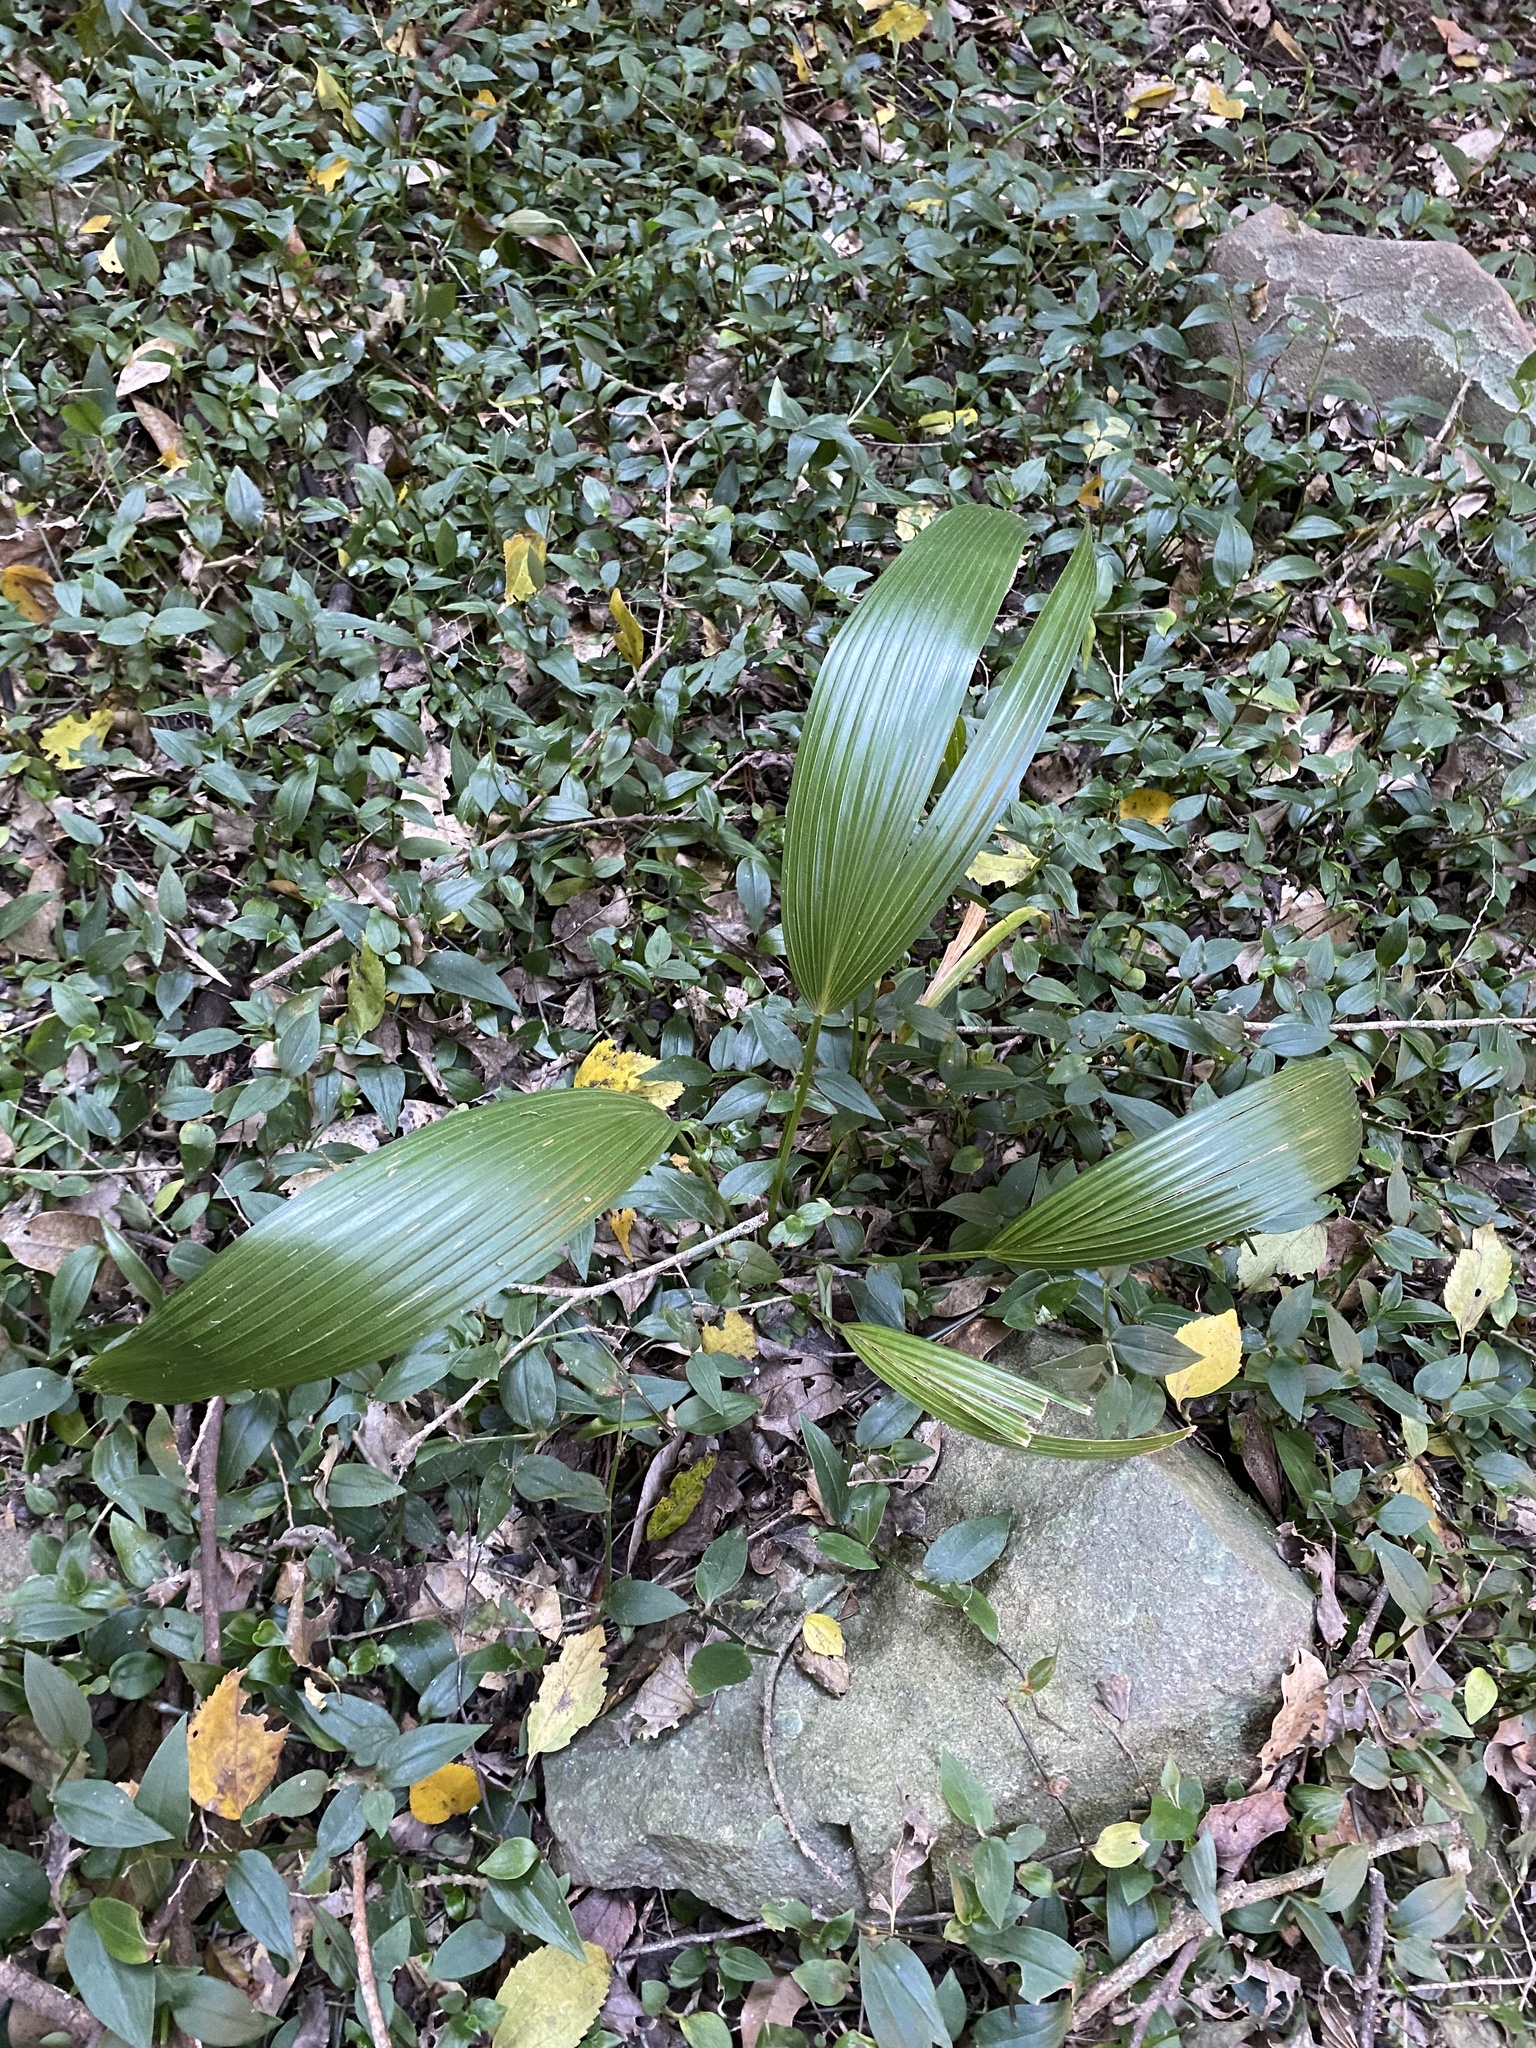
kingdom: Plantae
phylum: Tracheophyta
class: Liliopsida
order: Arecales
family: Arecaceae
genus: Livistona
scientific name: Livistona chinensis
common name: Fountain palm
